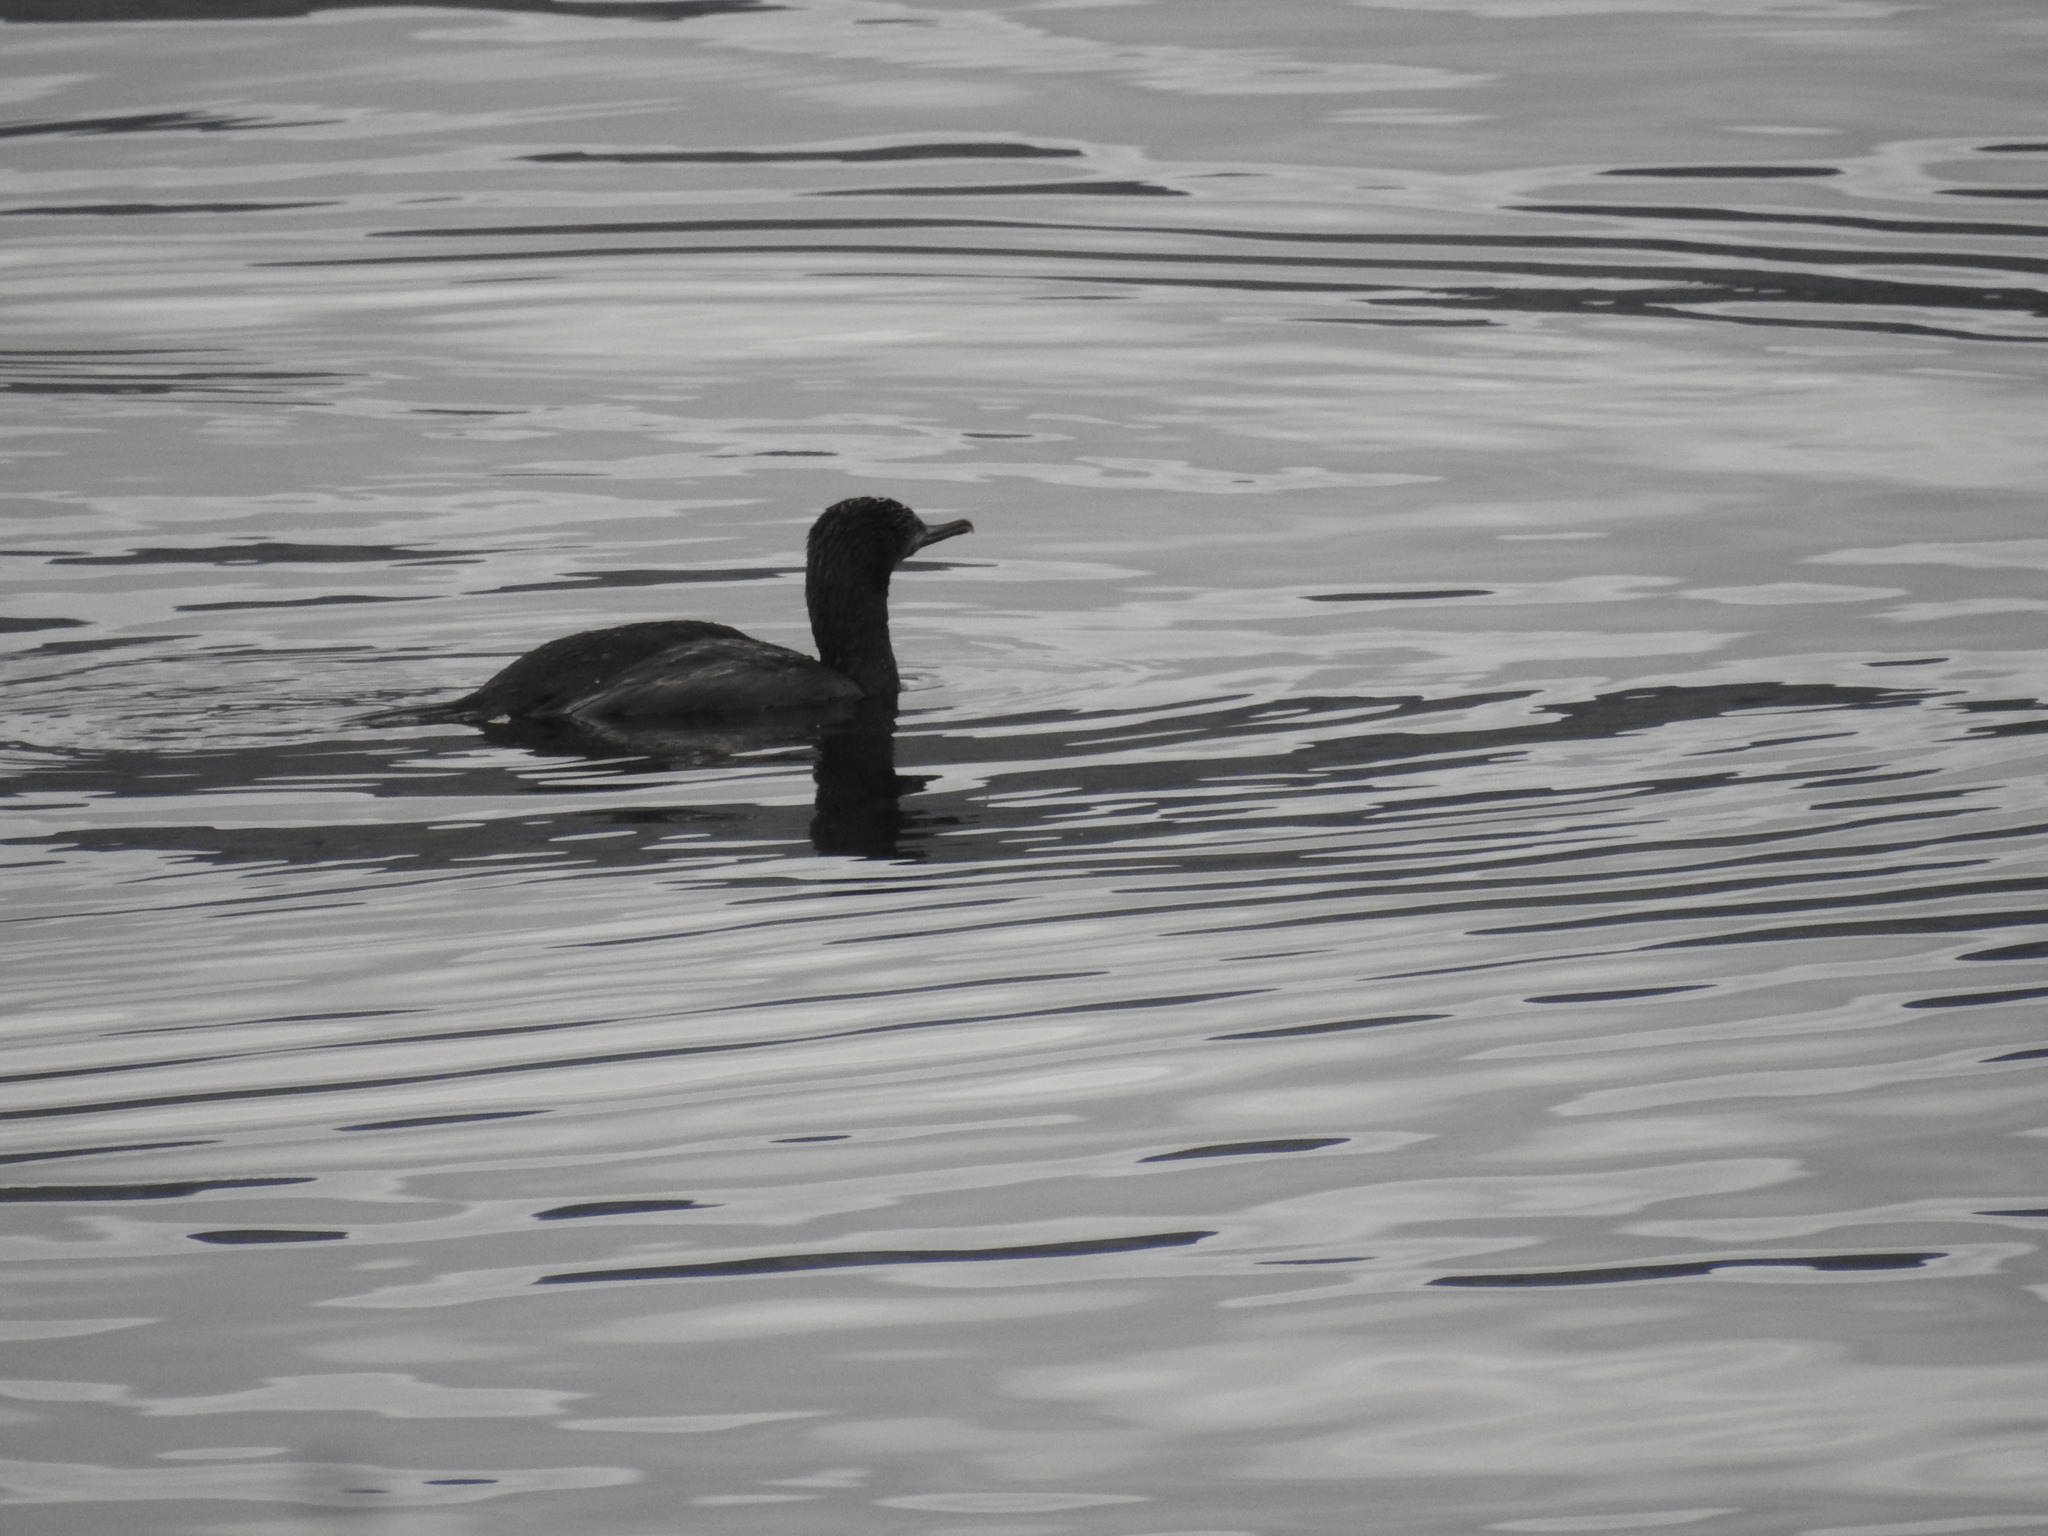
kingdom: Animalia
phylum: Chordata
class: Aves
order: Suliformes
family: Phalacrocoracidae
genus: Phalacrocorax
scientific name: Phalacrocorax brasilianus
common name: Neotropic cormorant
